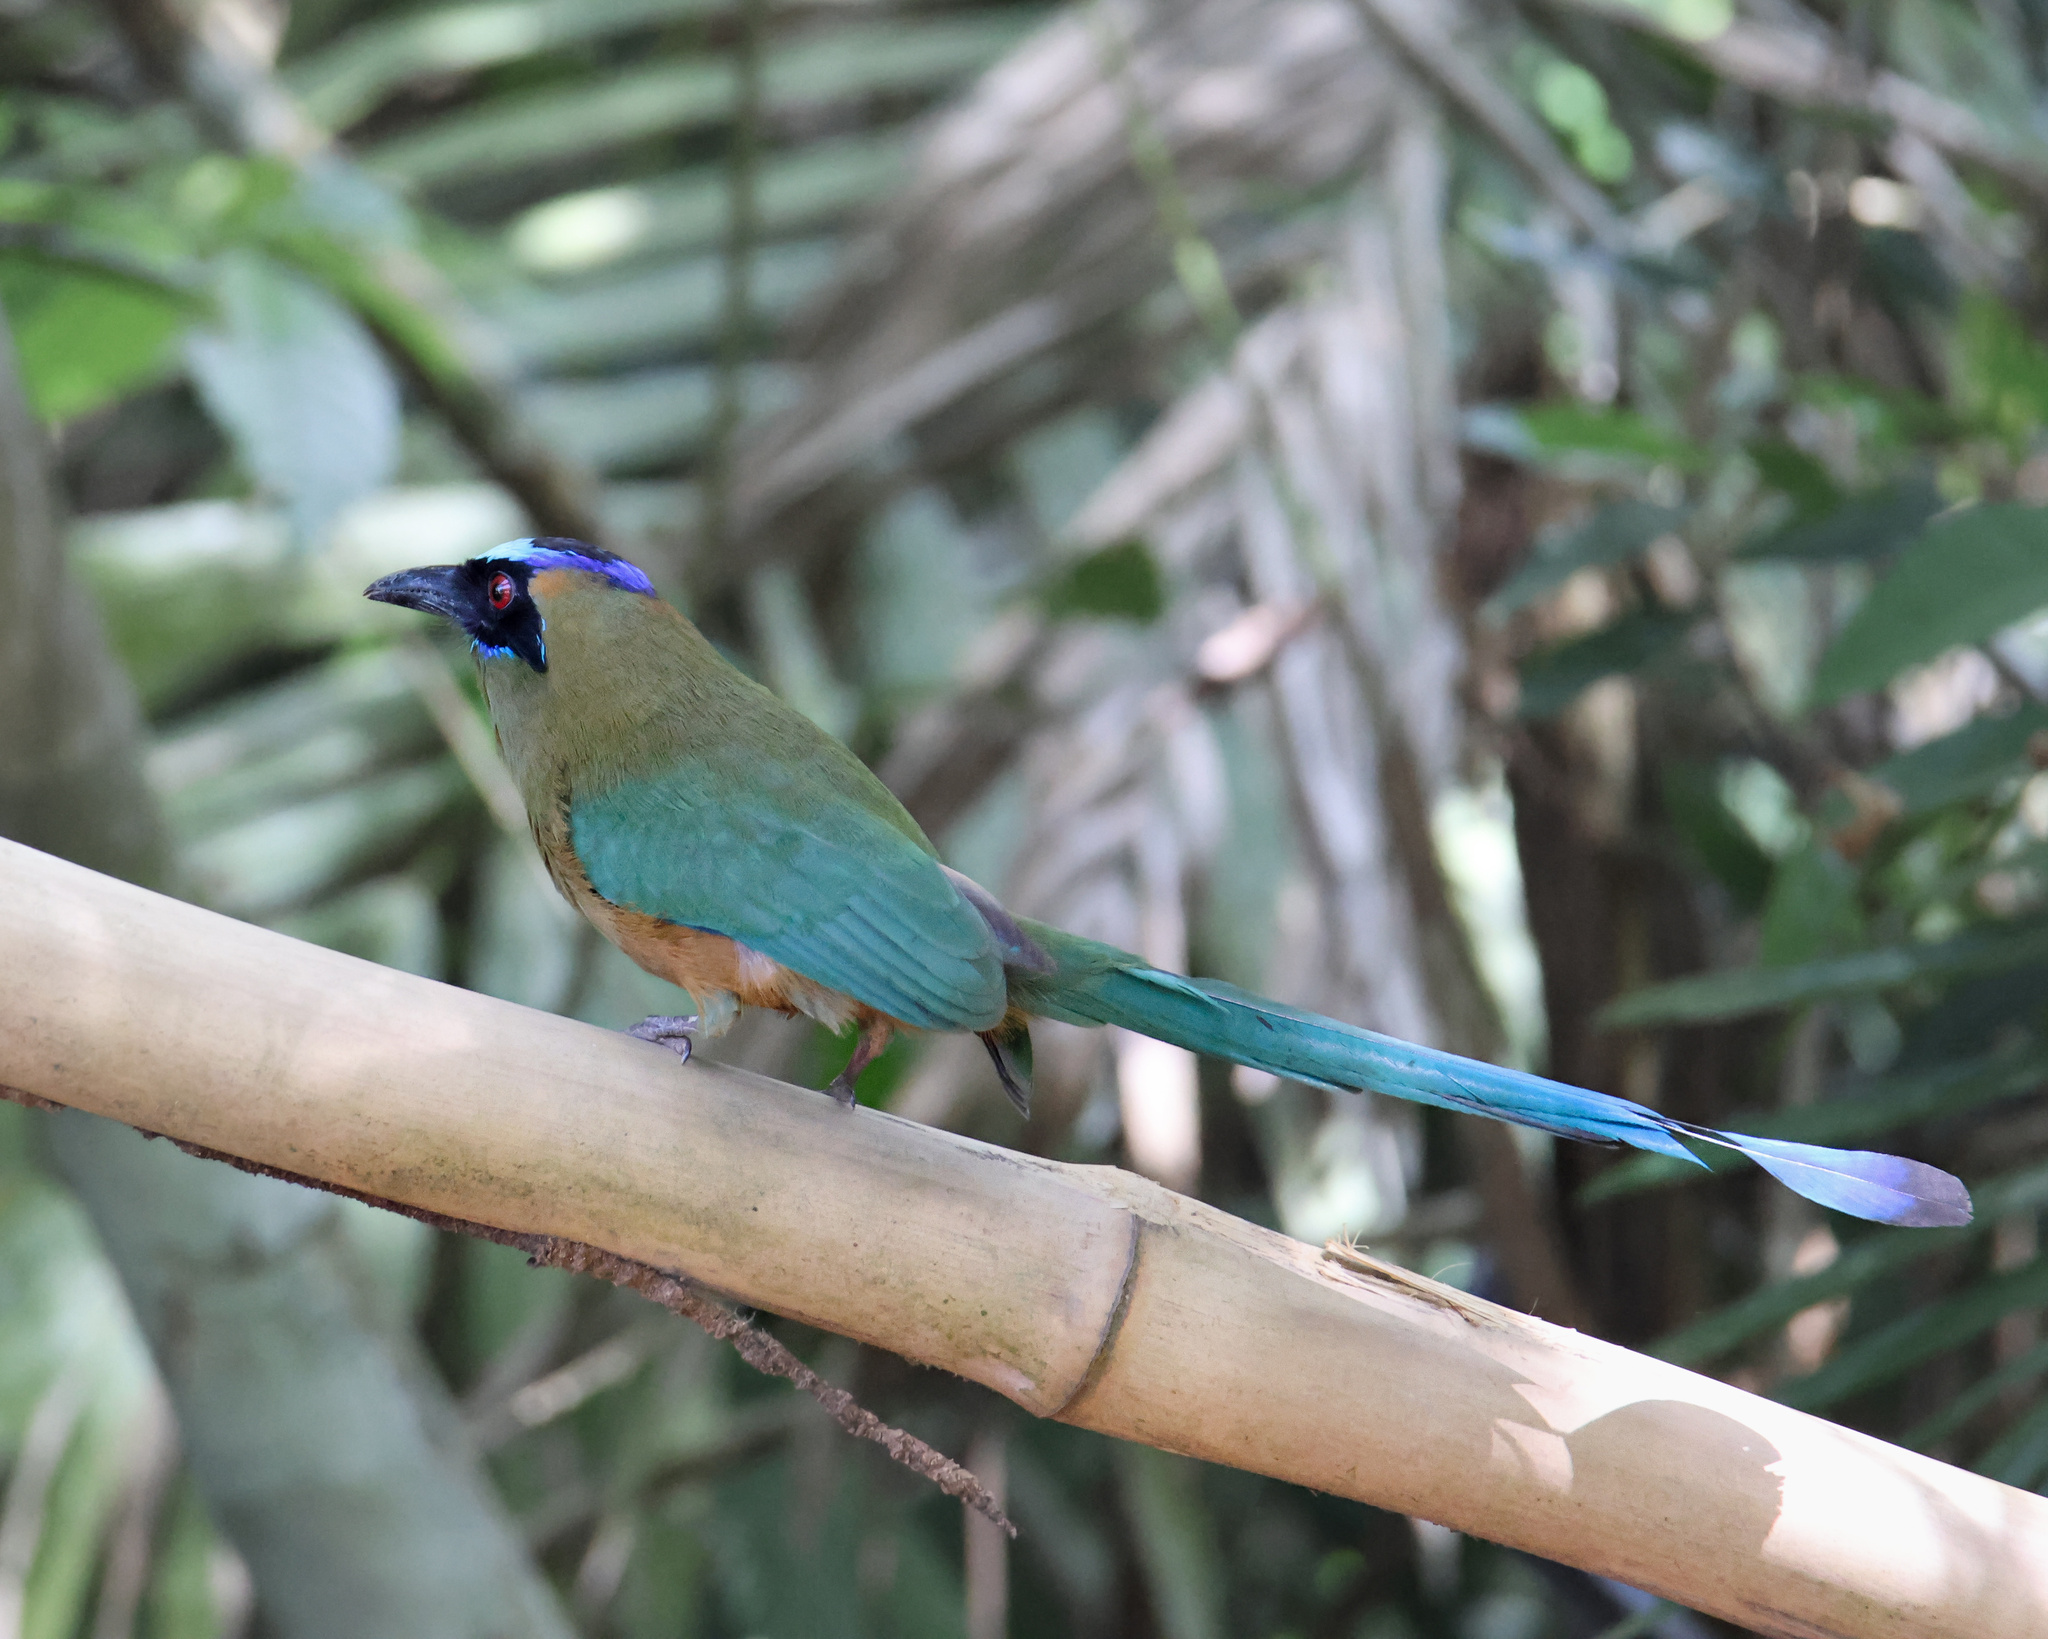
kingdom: Animalia
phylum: Chordata
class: Aves
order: Coraciiformes
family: Momotidae
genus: Momotus
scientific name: Momotus subrufescens
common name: Whooping motmot
